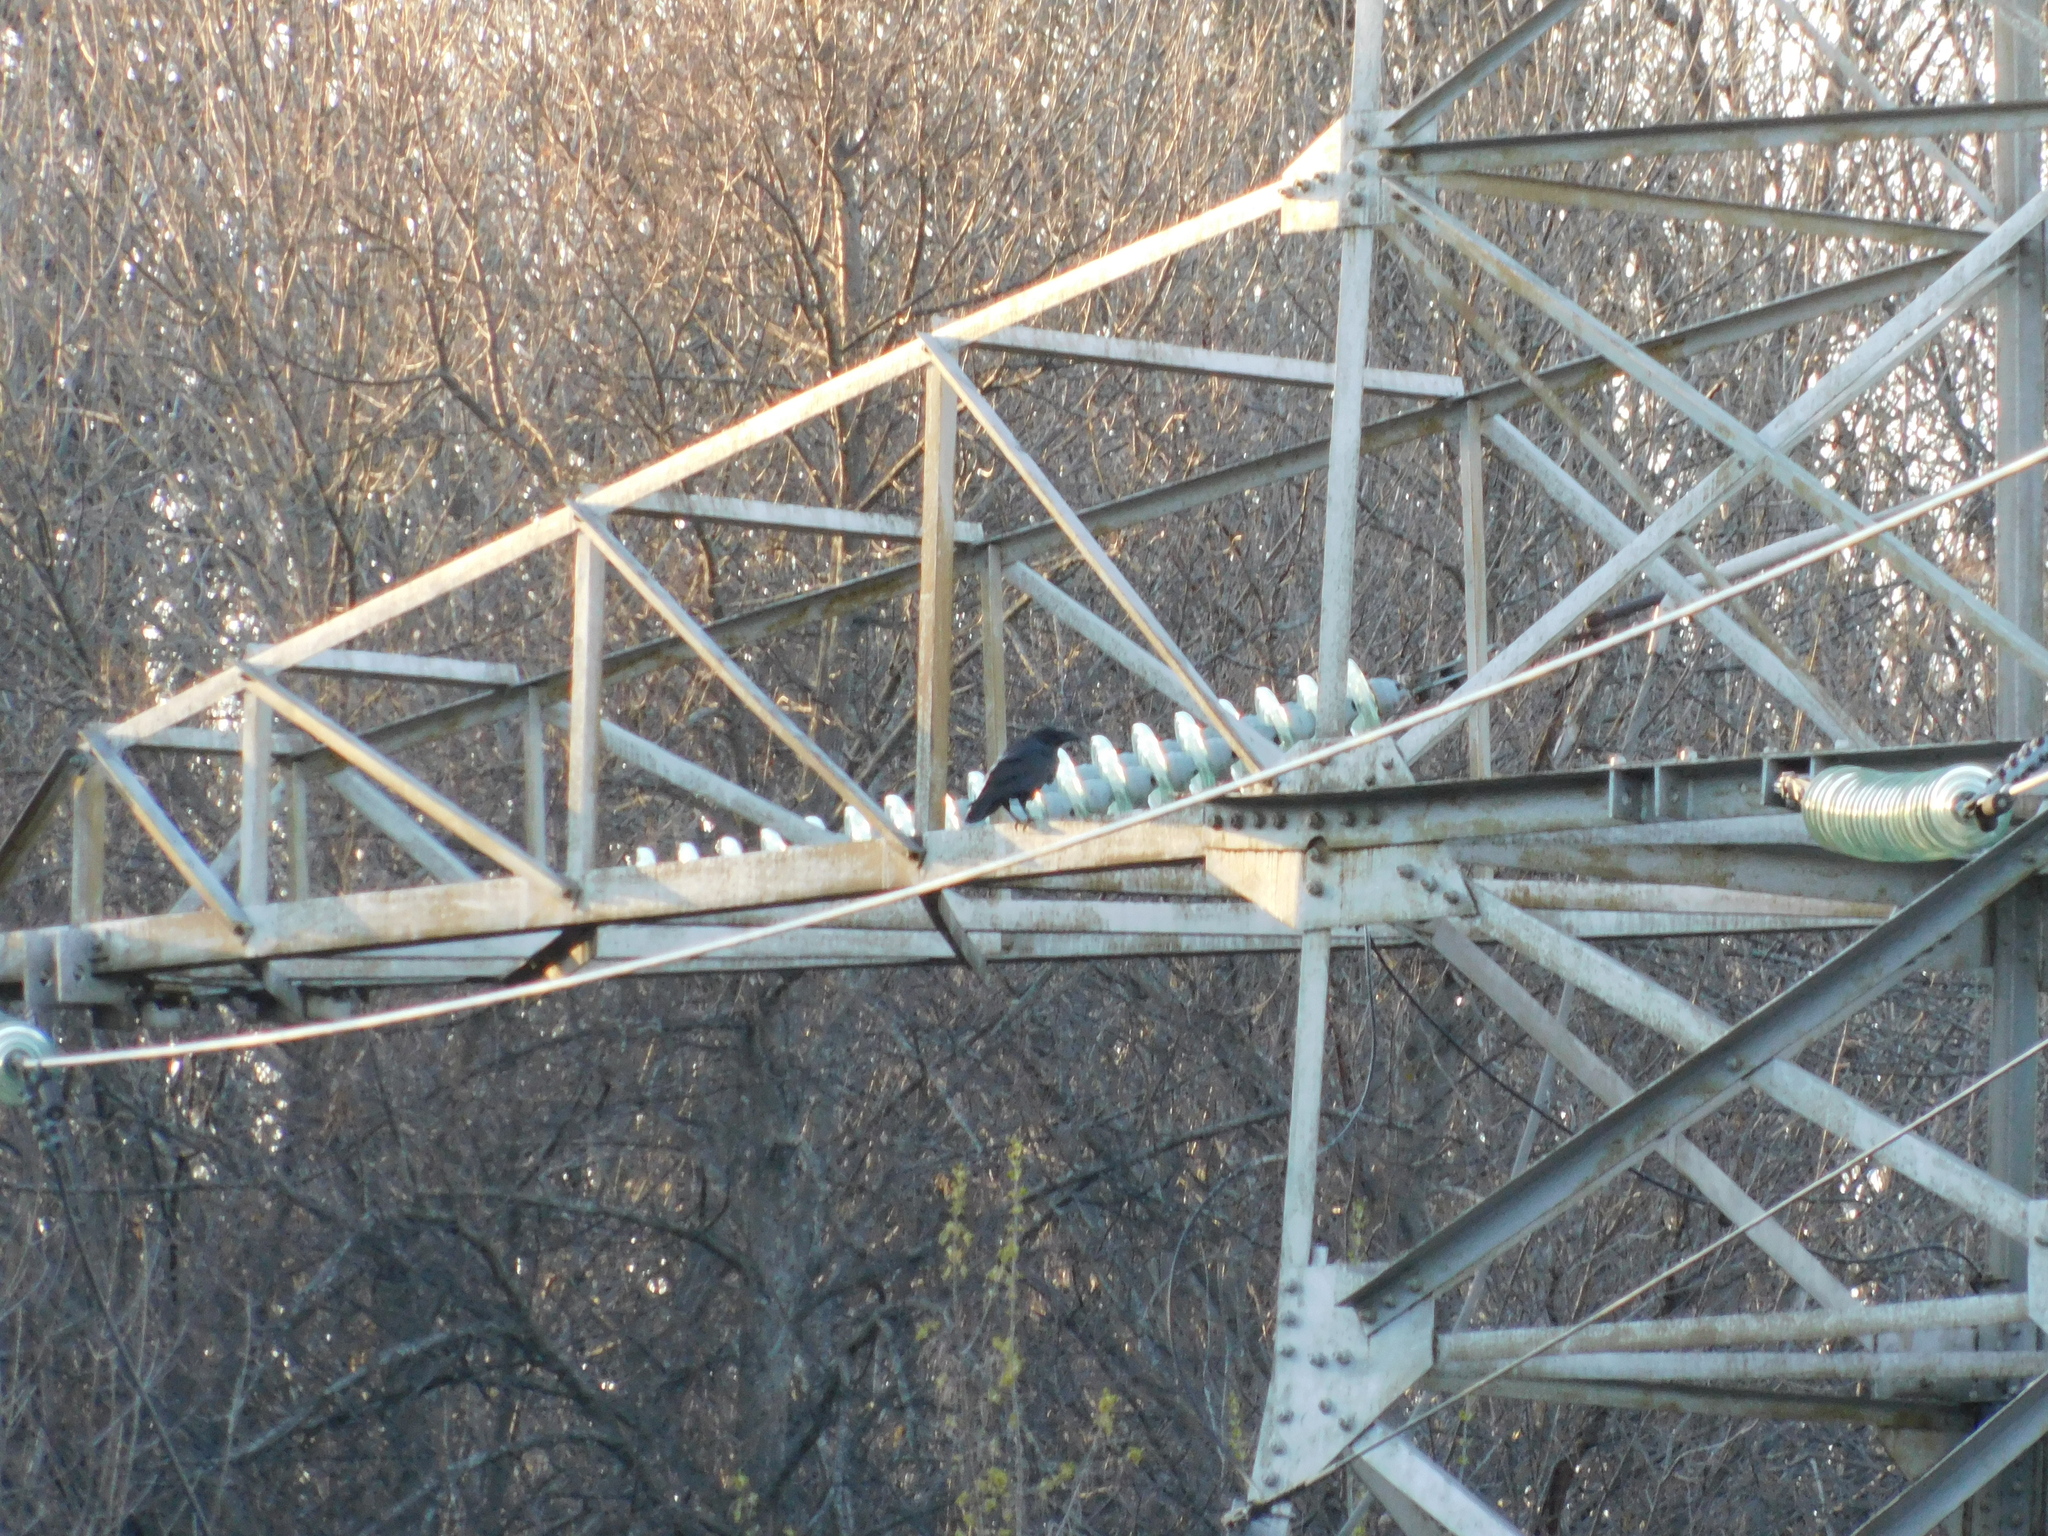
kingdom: Animalia
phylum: Chordata
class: Aves
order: Passeriformes
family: Corvidae
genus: Corvus
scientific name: Corvus corax
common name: Common raven
